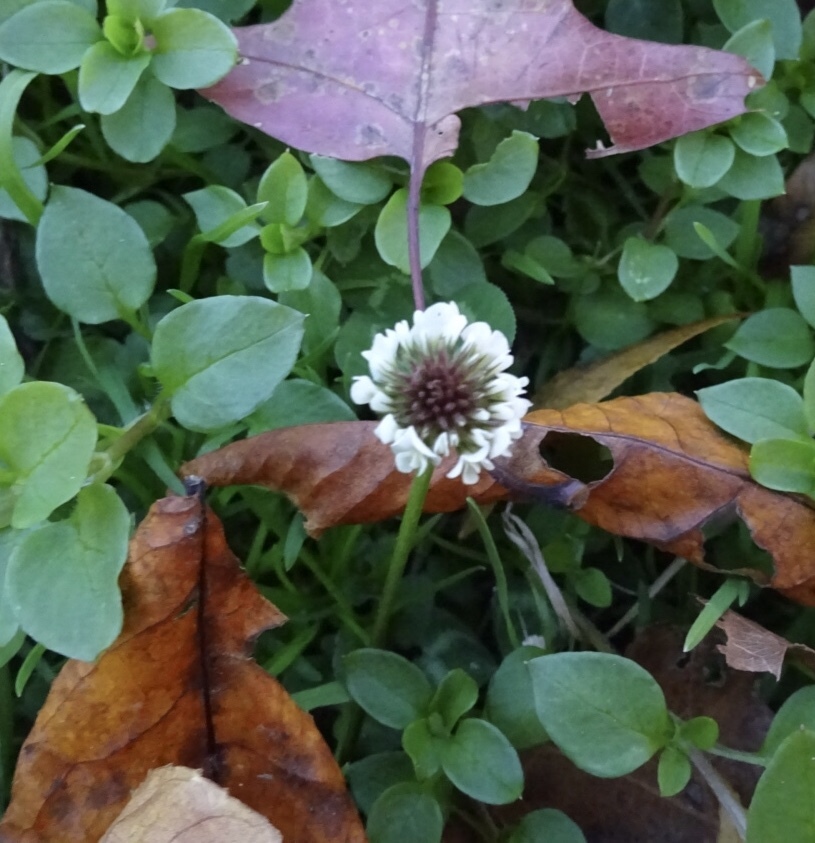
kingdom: Plantae
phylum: Tracheophyta
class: Magnoliopsida
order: Fabales
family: Fabaceae
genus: Trifolium
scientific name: Trifolium repens
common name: White clover
